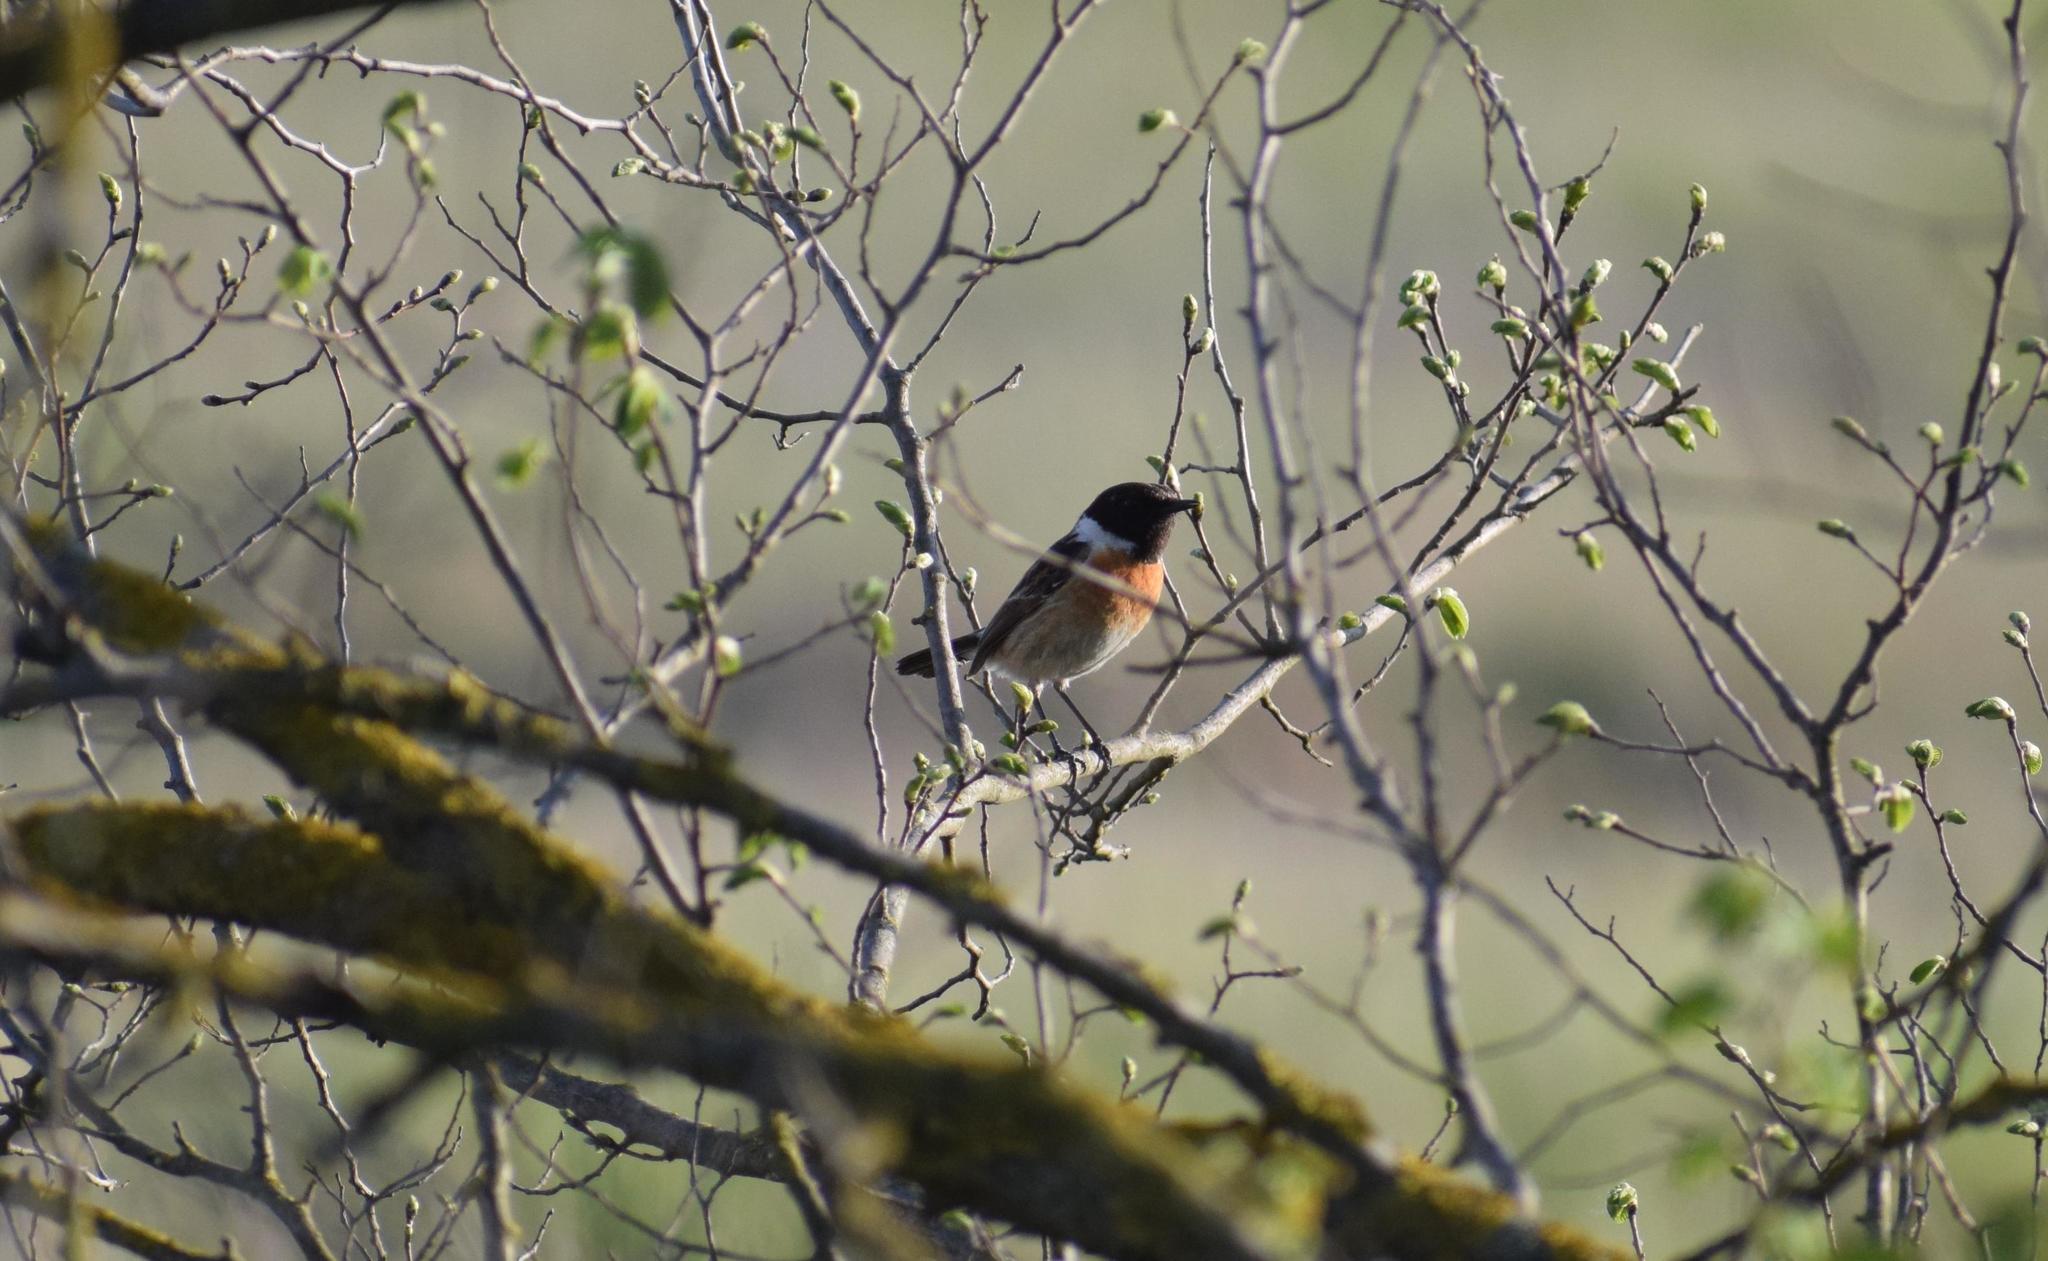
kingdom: Animalia
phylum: Chordata
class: Aves
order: Passeriformes
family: Muscicapidae
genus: Saxicola
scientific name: Saxicola rubicola
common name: European stonechat
